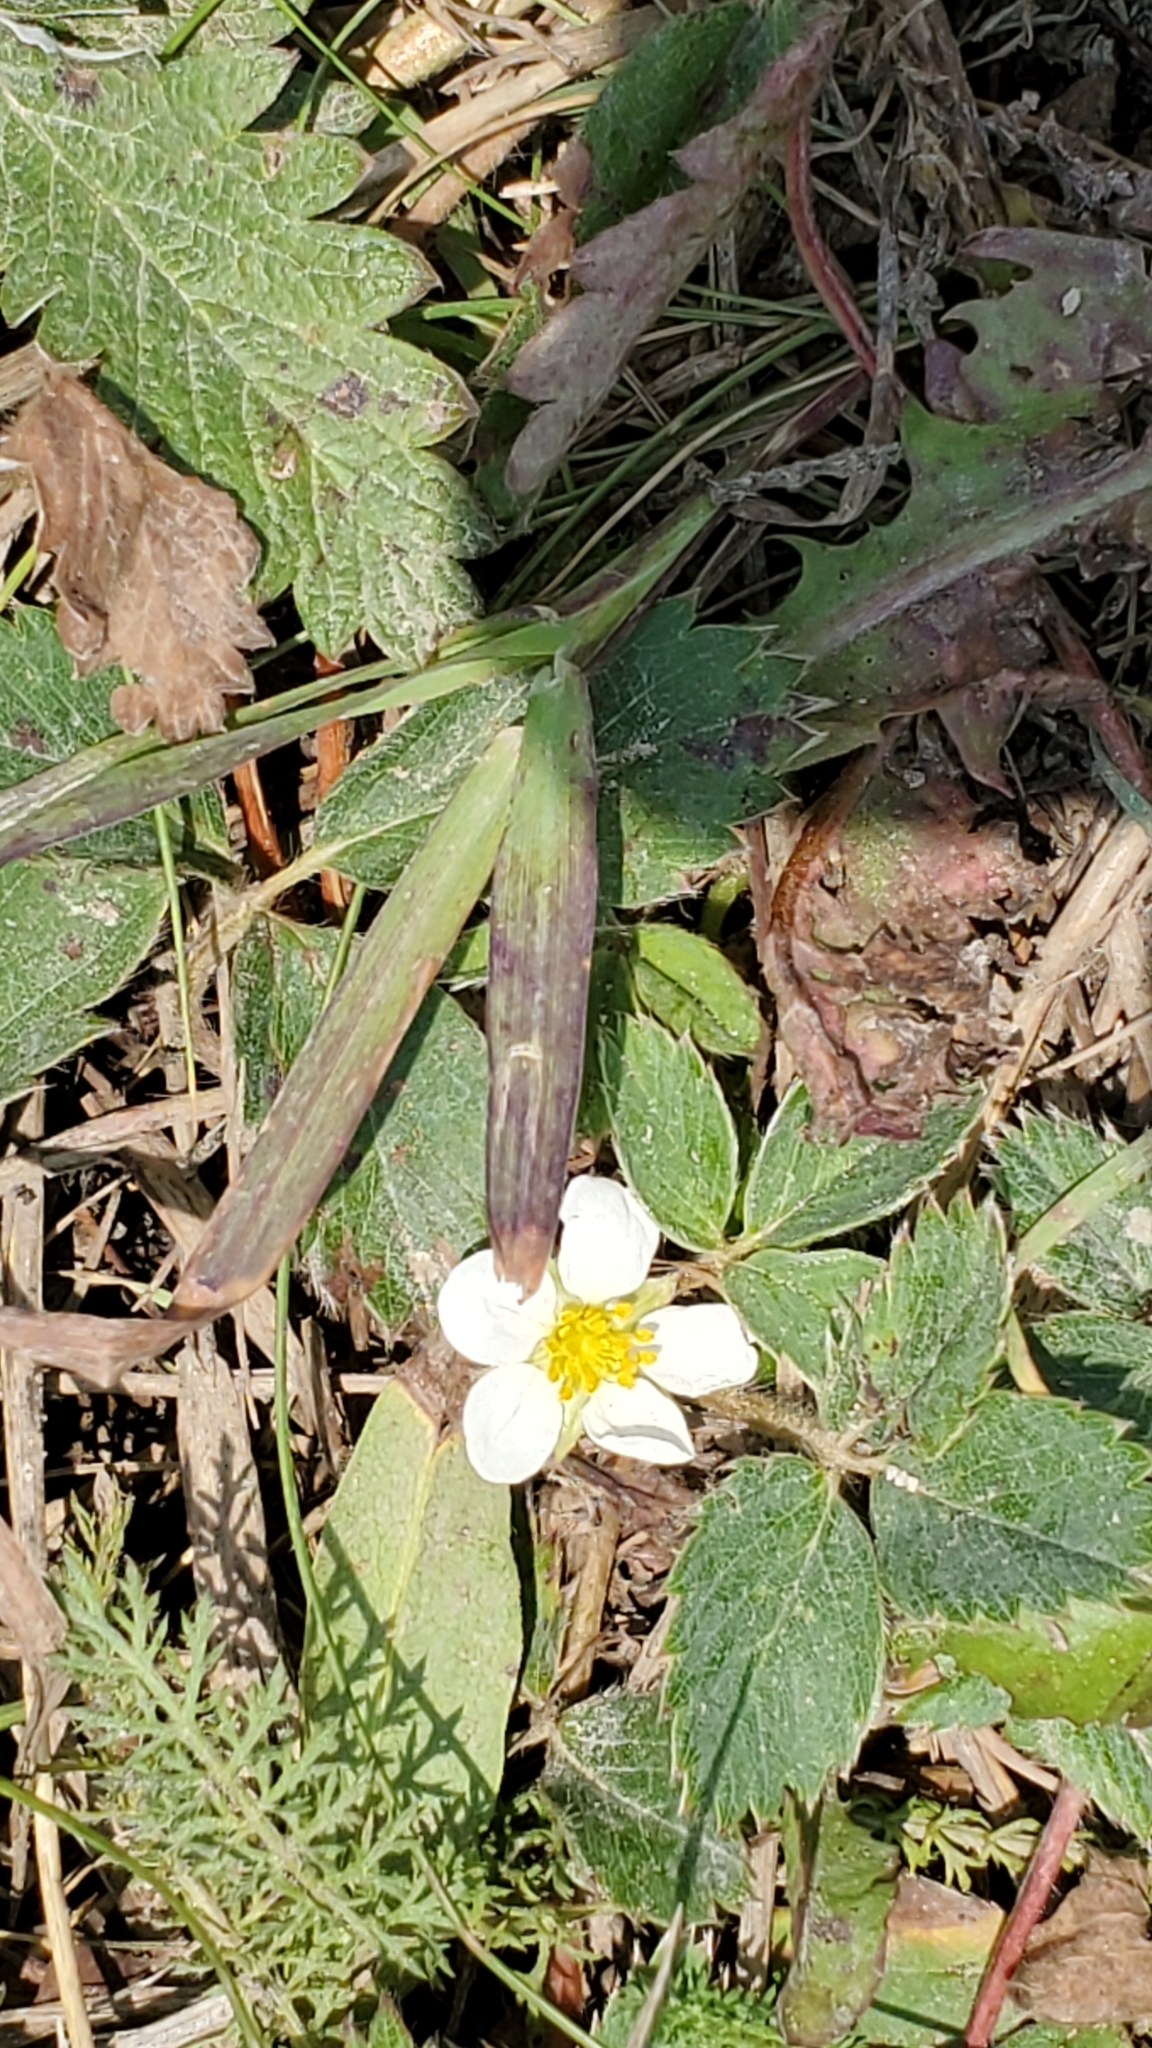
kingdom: Plantae
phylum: Tracheophyta
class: Magnoliopsida
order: Rosales
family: Rosaceae
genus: Fragaria
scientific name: Fragaria vesca
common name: Wild strawberry
